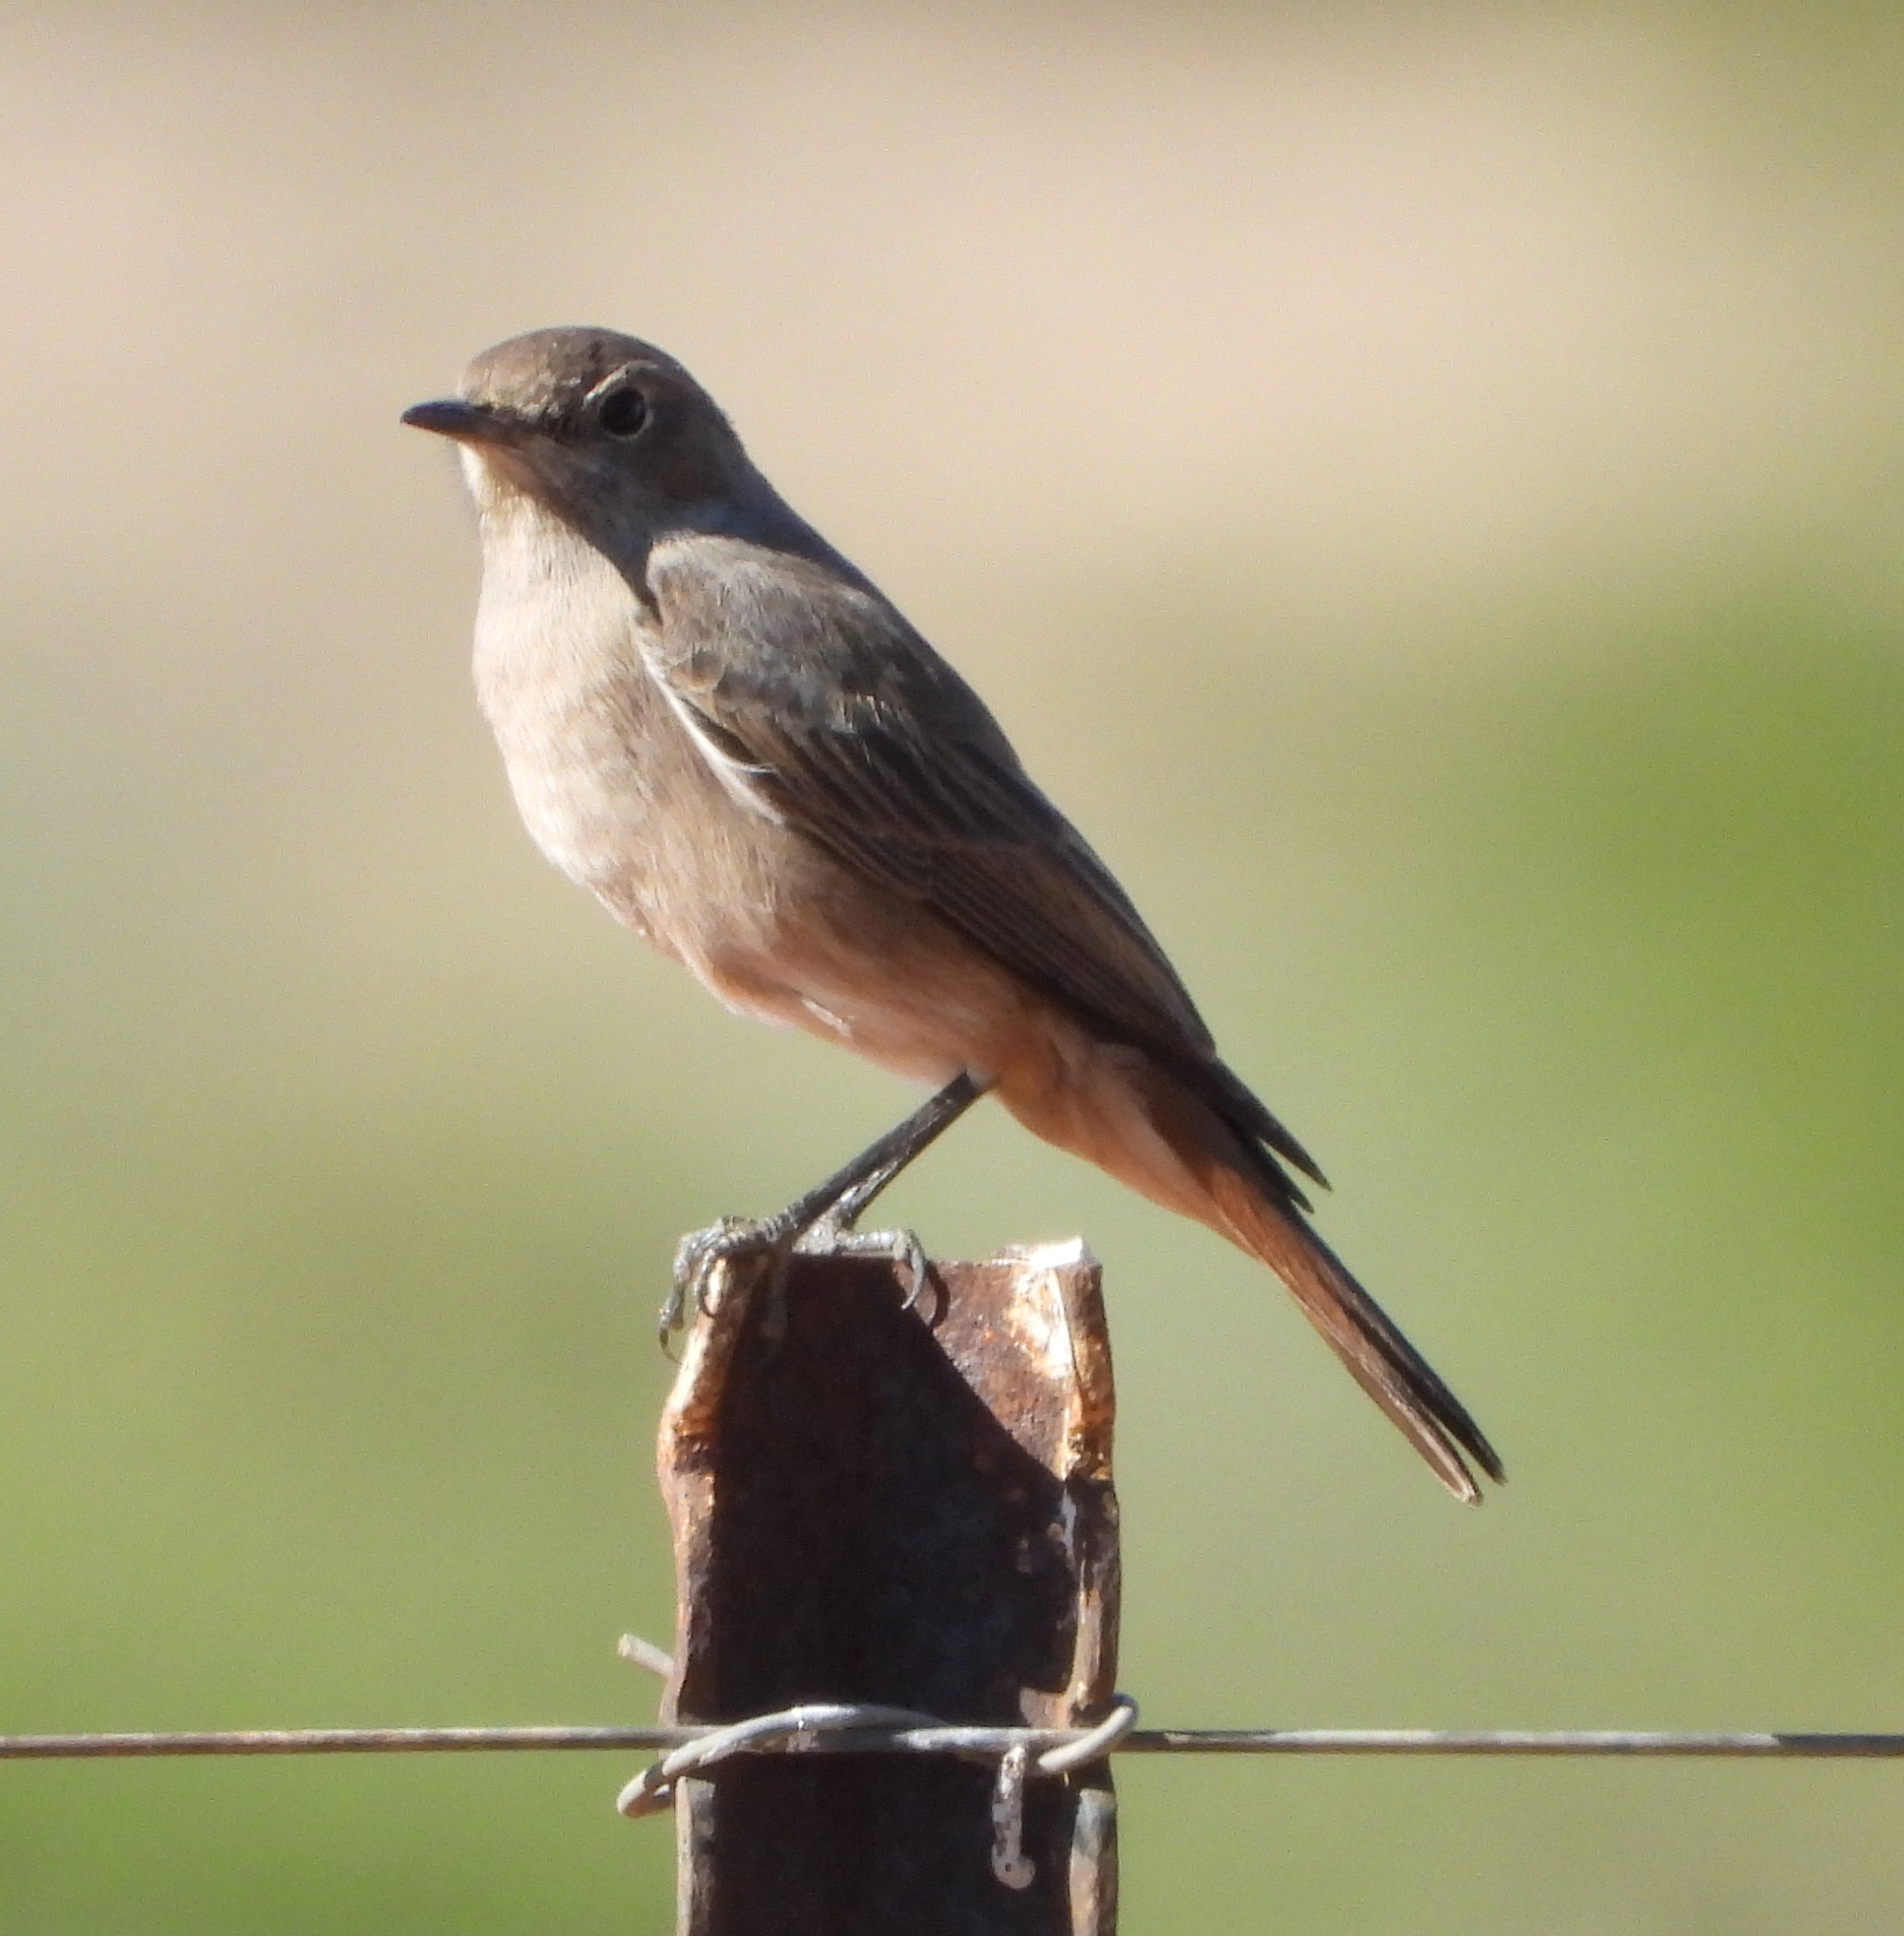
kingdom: Animalia
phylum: Chordata
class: Aves
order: Passeriformes
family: Muscicapidae
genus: Oenanthe
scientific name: Oenanthe familiaris
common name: Familiar chat
